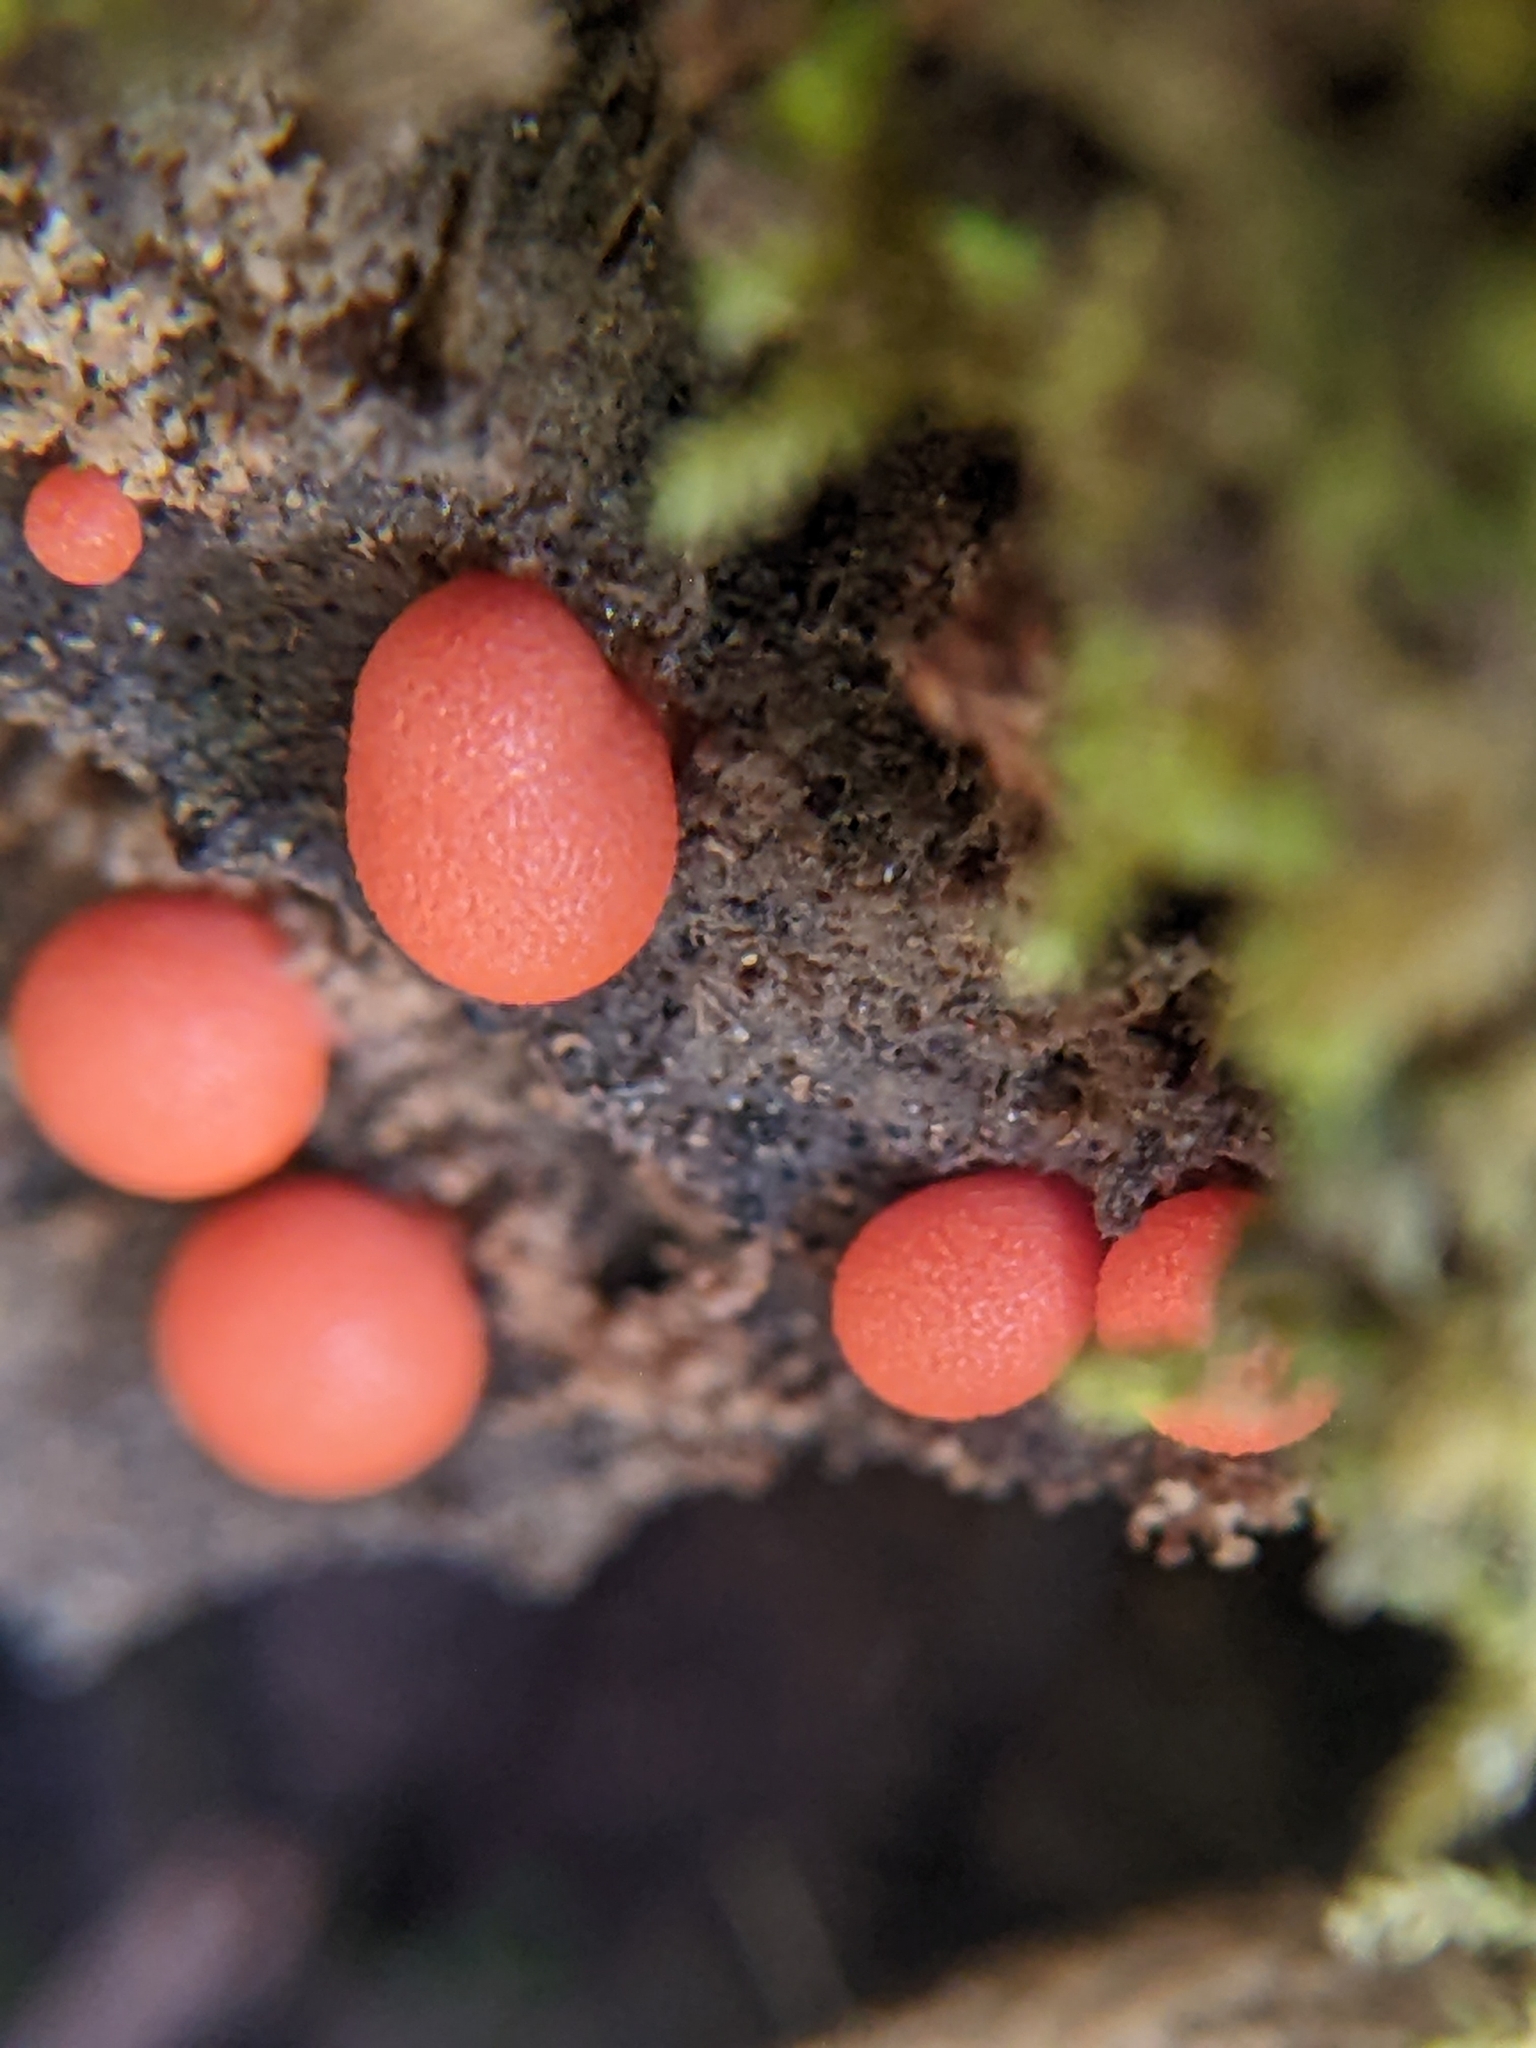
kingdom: Protozoa
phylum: Mycetozoa
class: Myxomycetes
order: Cribrariales
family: Tubiferaceae
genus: Lycogala
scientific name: Lycogala epidendrum
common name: Wolf's milk
